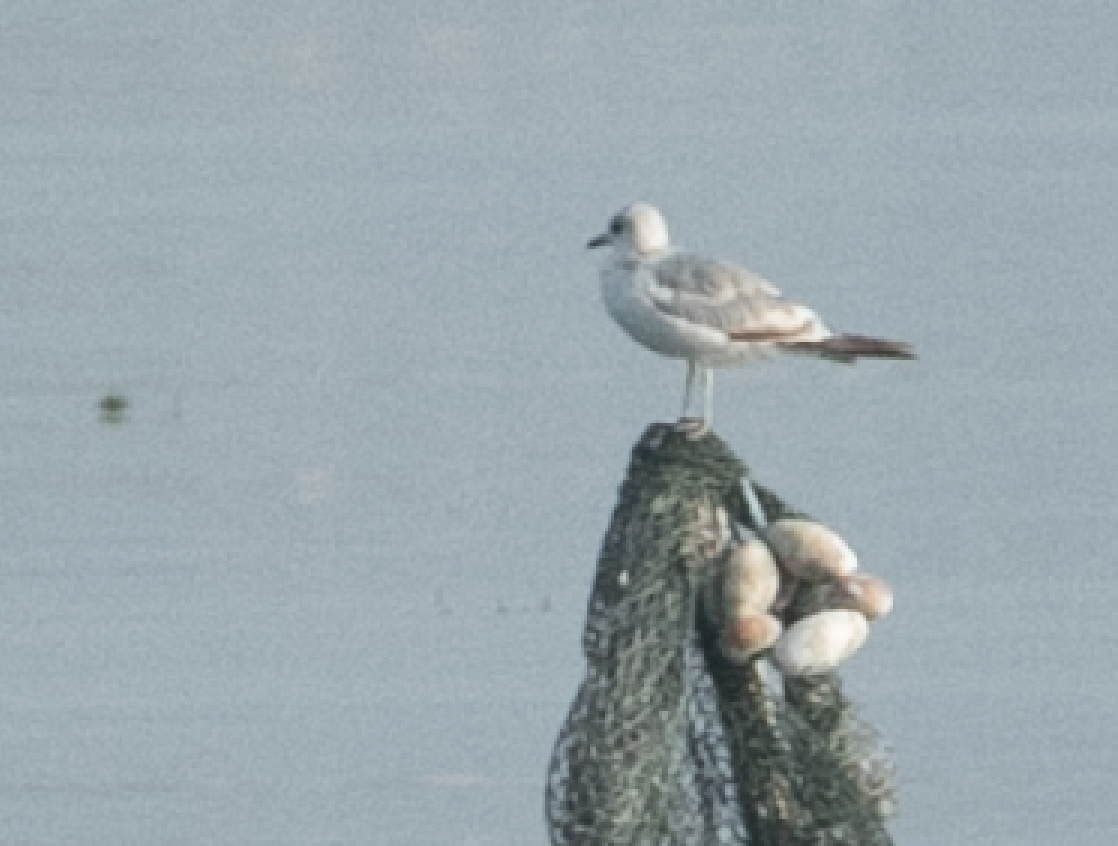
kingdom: Animalia
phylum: Chordata
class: Aves
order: Charadriiformes
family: Laridae
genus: Larus
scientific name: Larus canus
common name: Mew gull
